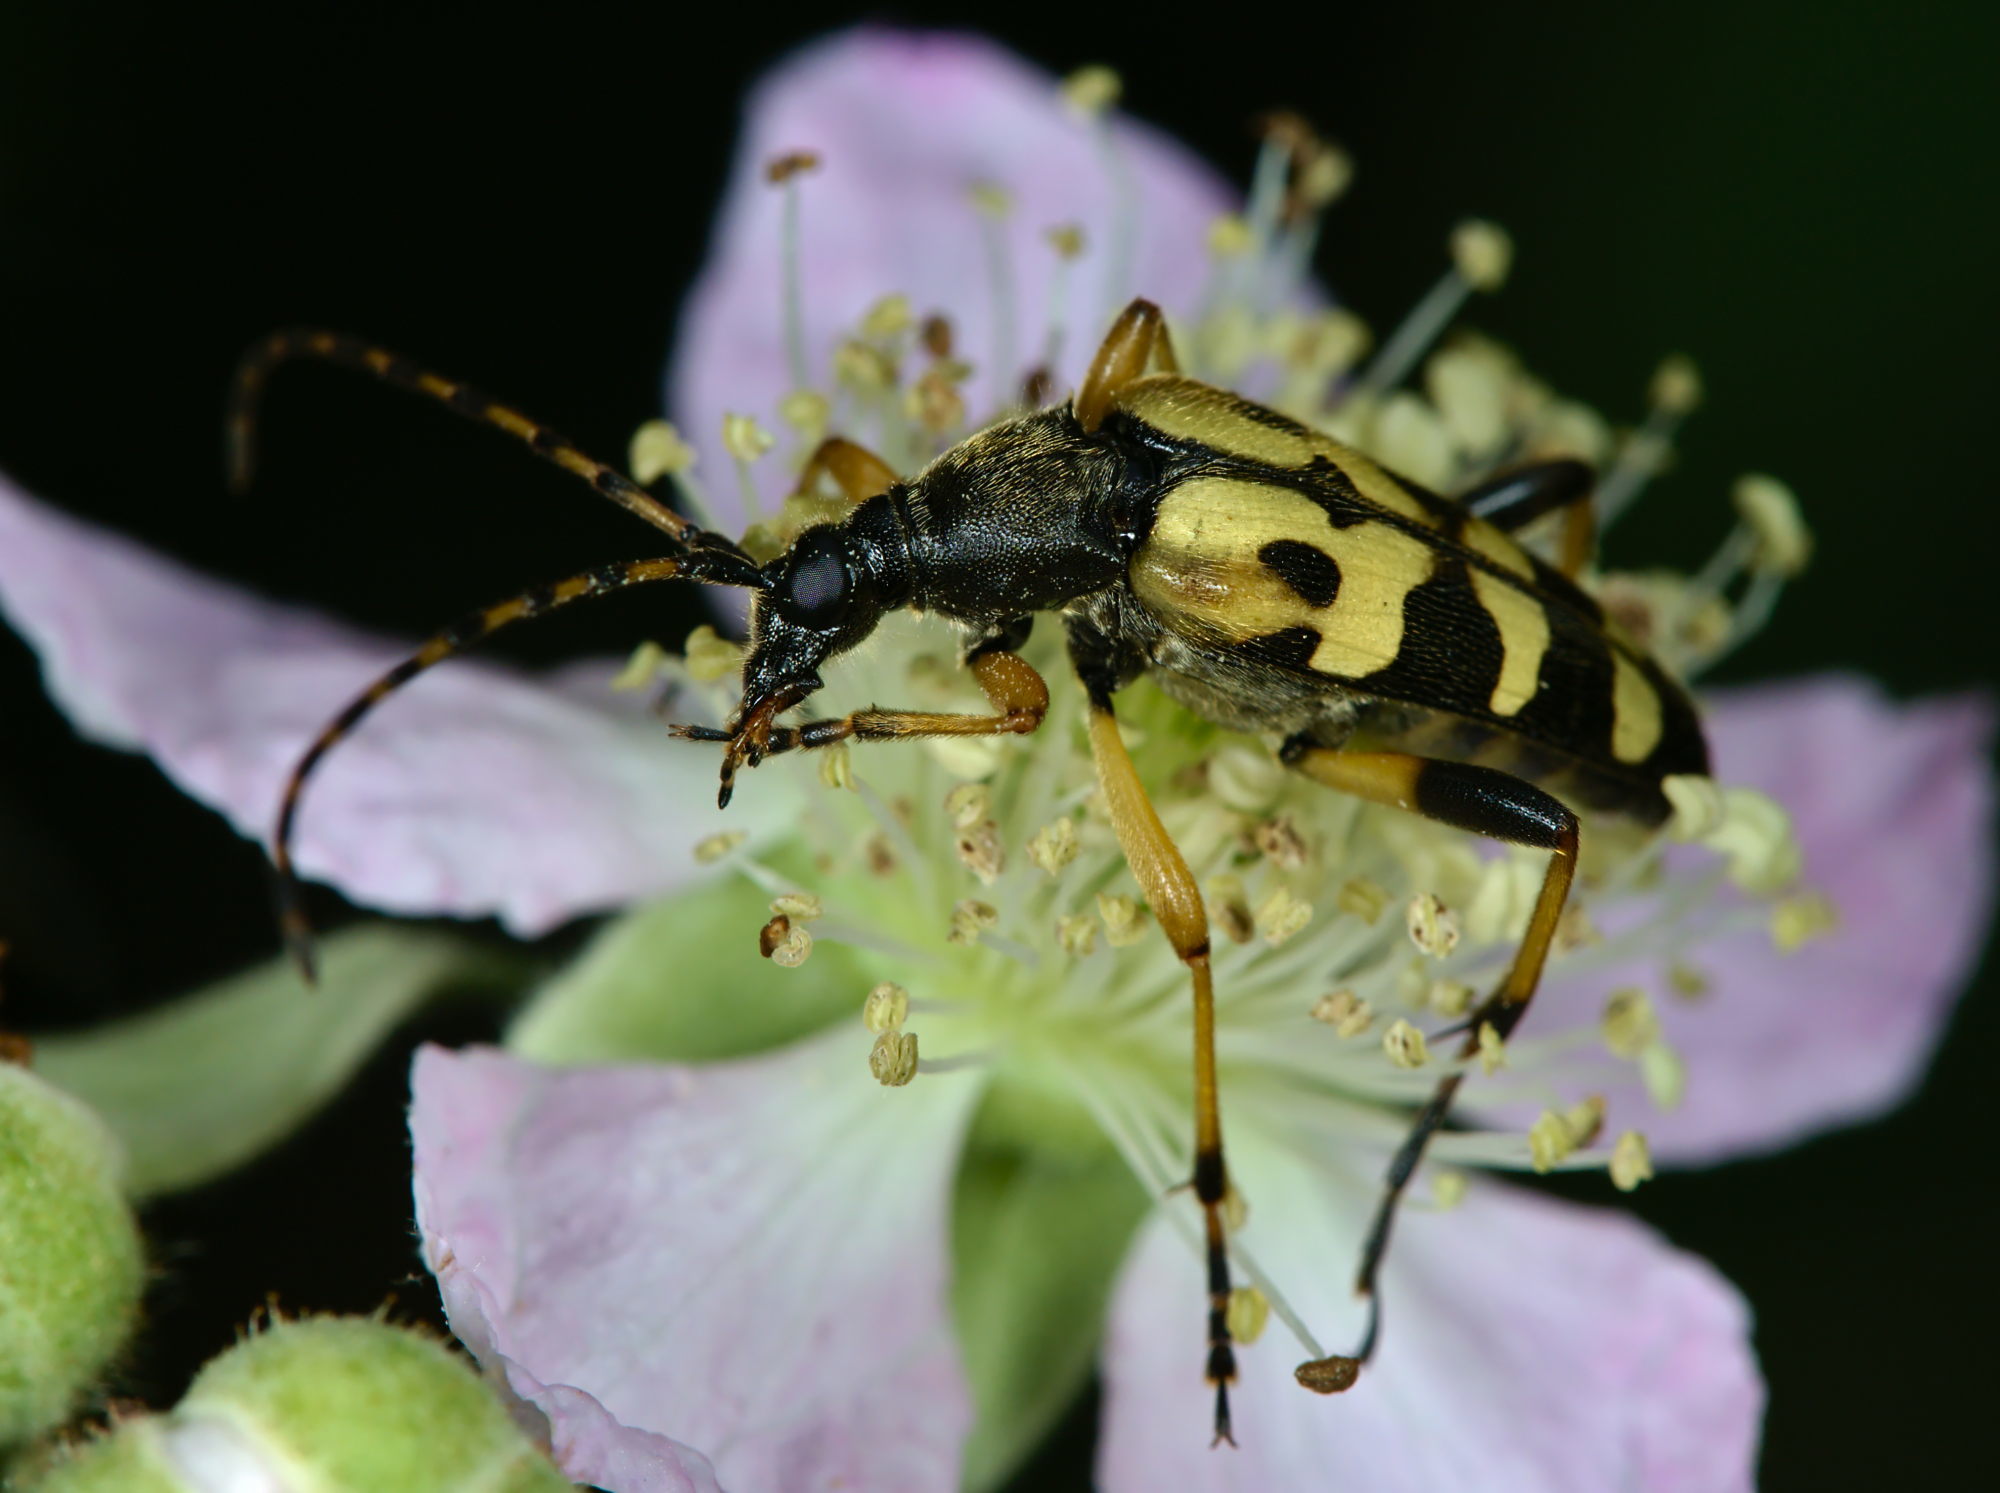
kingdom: Animalia
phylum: Arthropoda
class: Insecta
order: Coleoptera
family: Cerambycidae
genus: Rutpela
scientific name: Rutpela maculata
